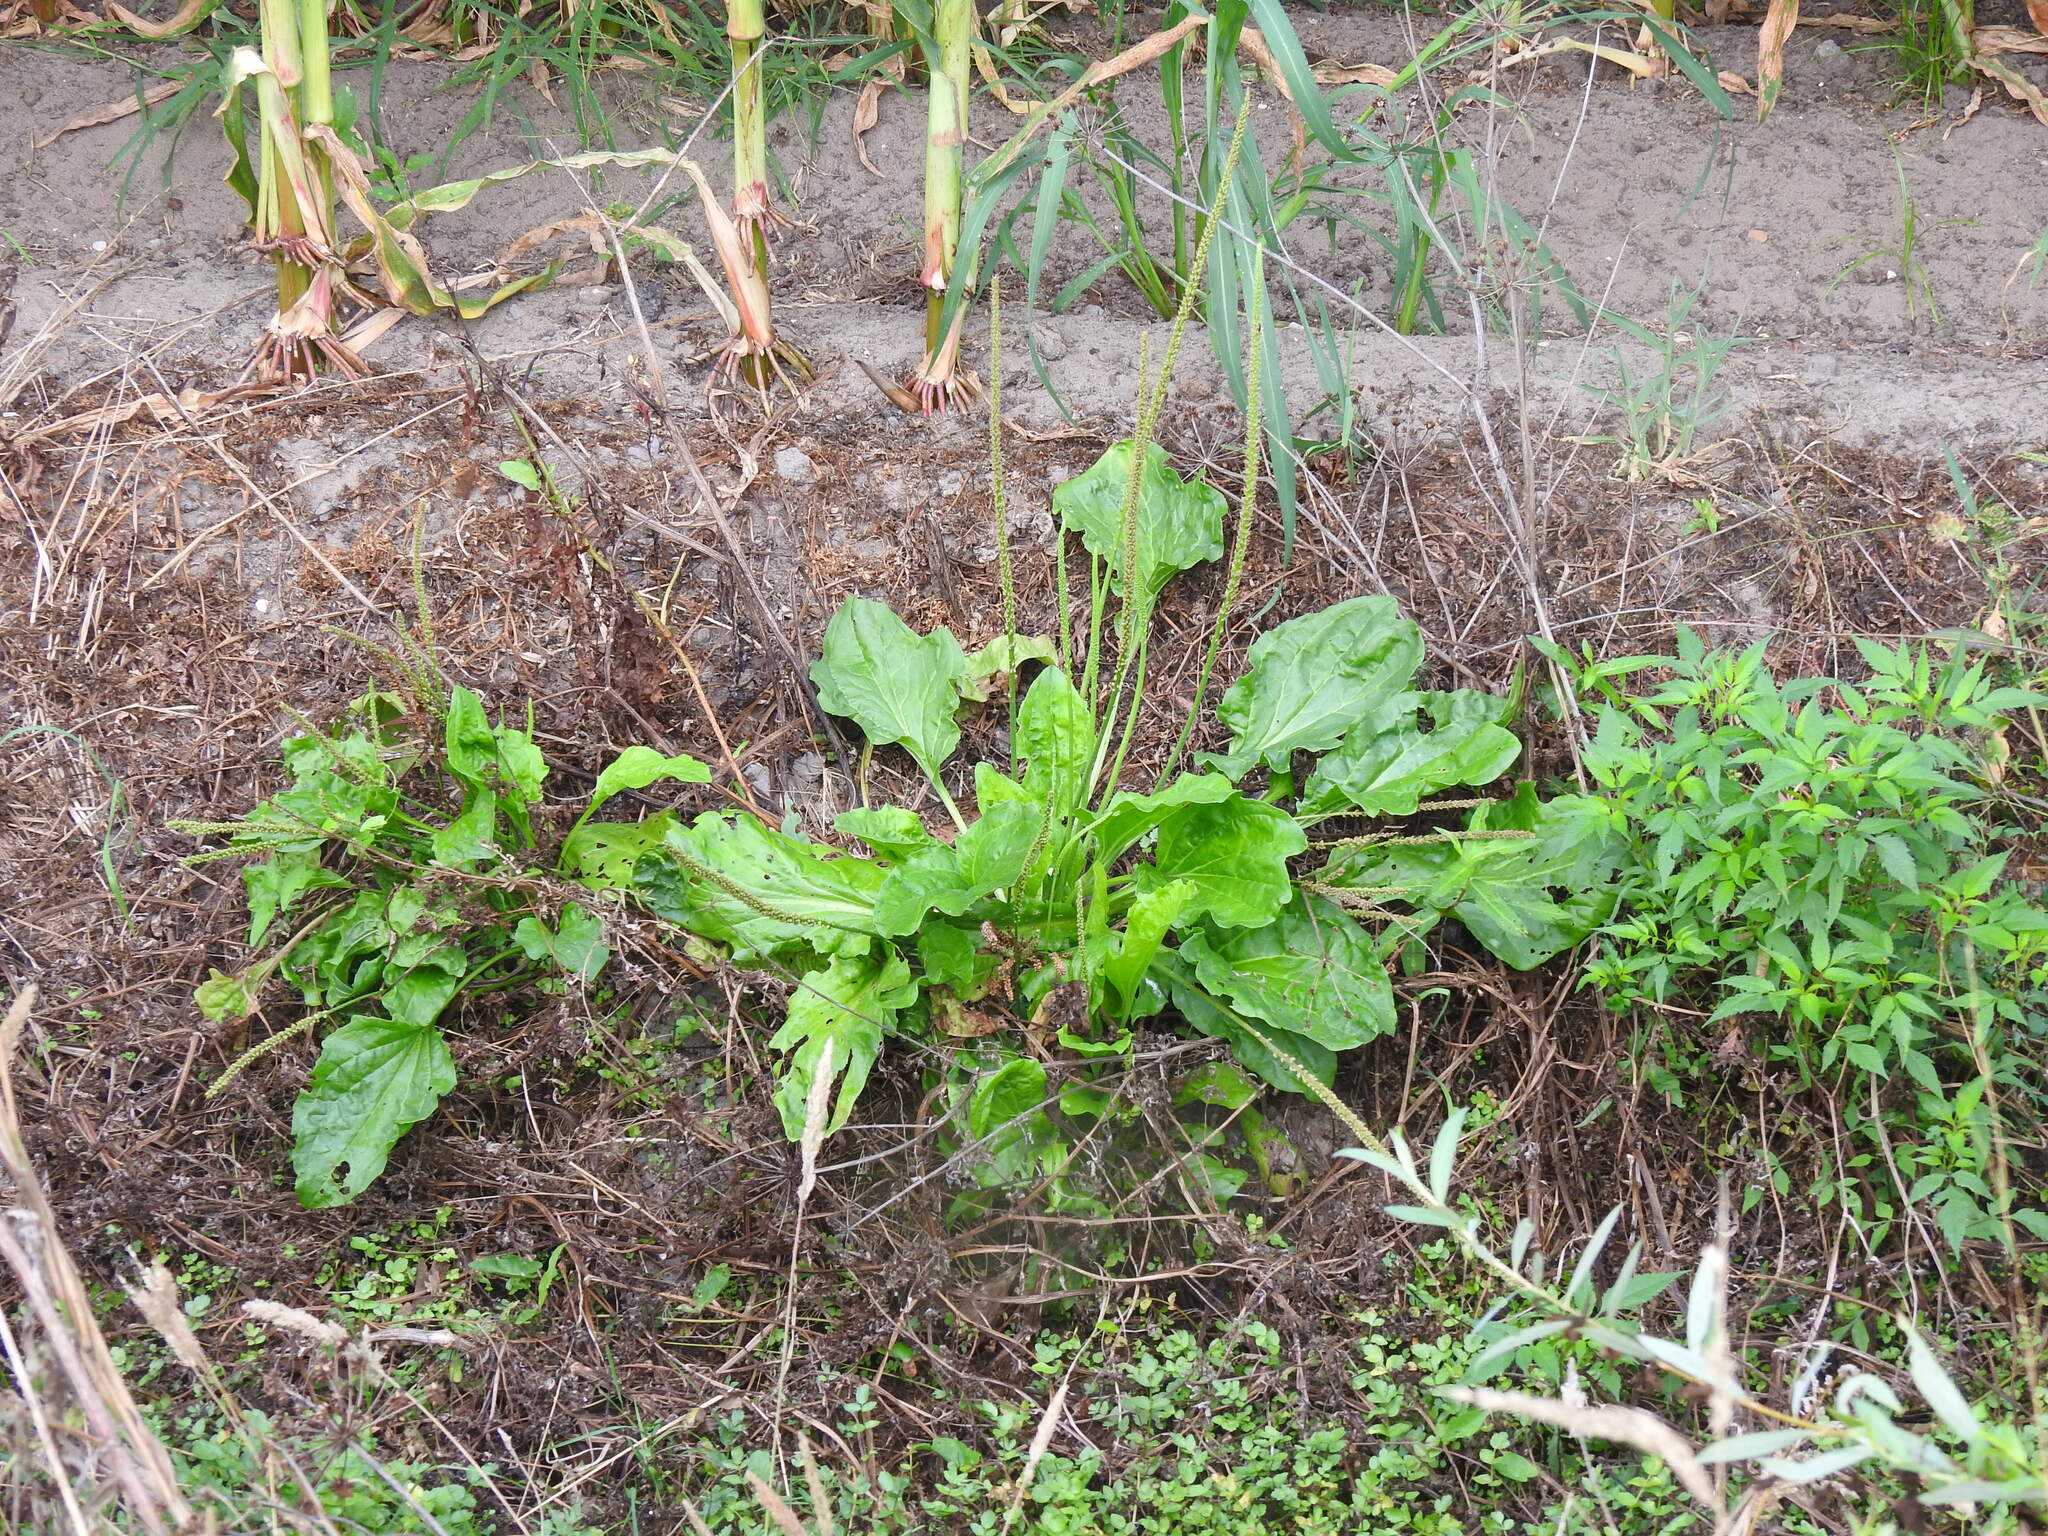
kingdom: Plantae
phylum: Tracheophyta
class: Magnoliopsida
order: Lamiales
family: Plantaginaceae
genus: Plantago
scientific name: Plantago major
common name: Common plantain
